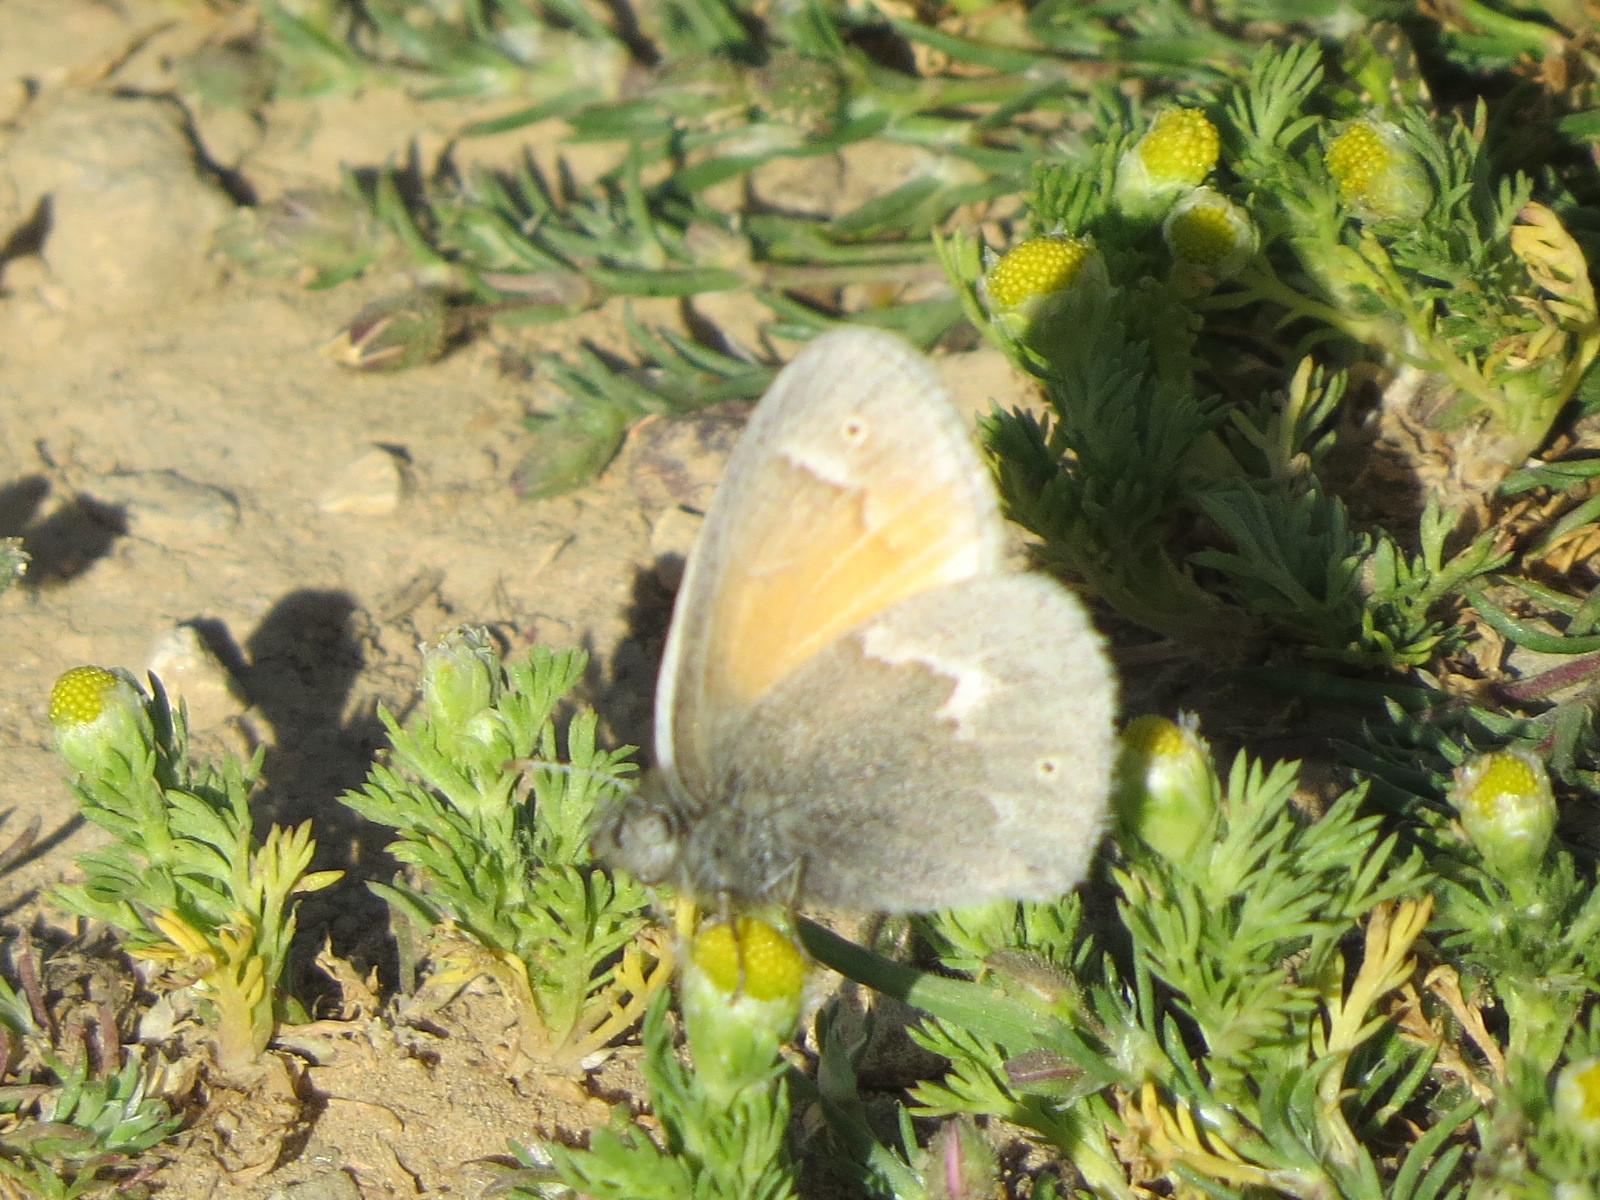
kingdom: Animalia
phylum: Arthropoda
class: Insecta
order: Lepidoptera
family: Nymphalidae
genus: Coenonympha
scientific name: Coenonympha california
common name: Common ringlet
